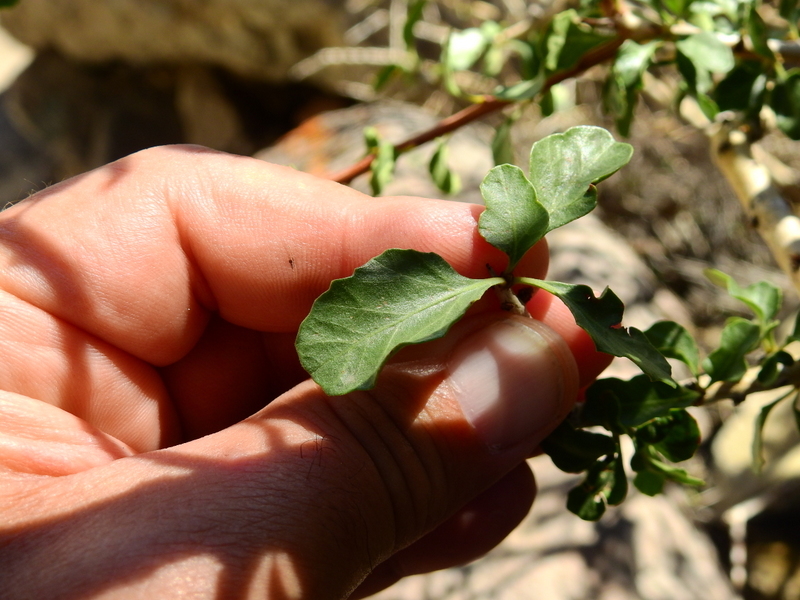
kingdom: Plantae
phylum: Tracheophyta
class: Magnoliopsida
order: Sapindales
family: Anacardiaceae
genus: Schinus
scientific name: Schinus odonellii
